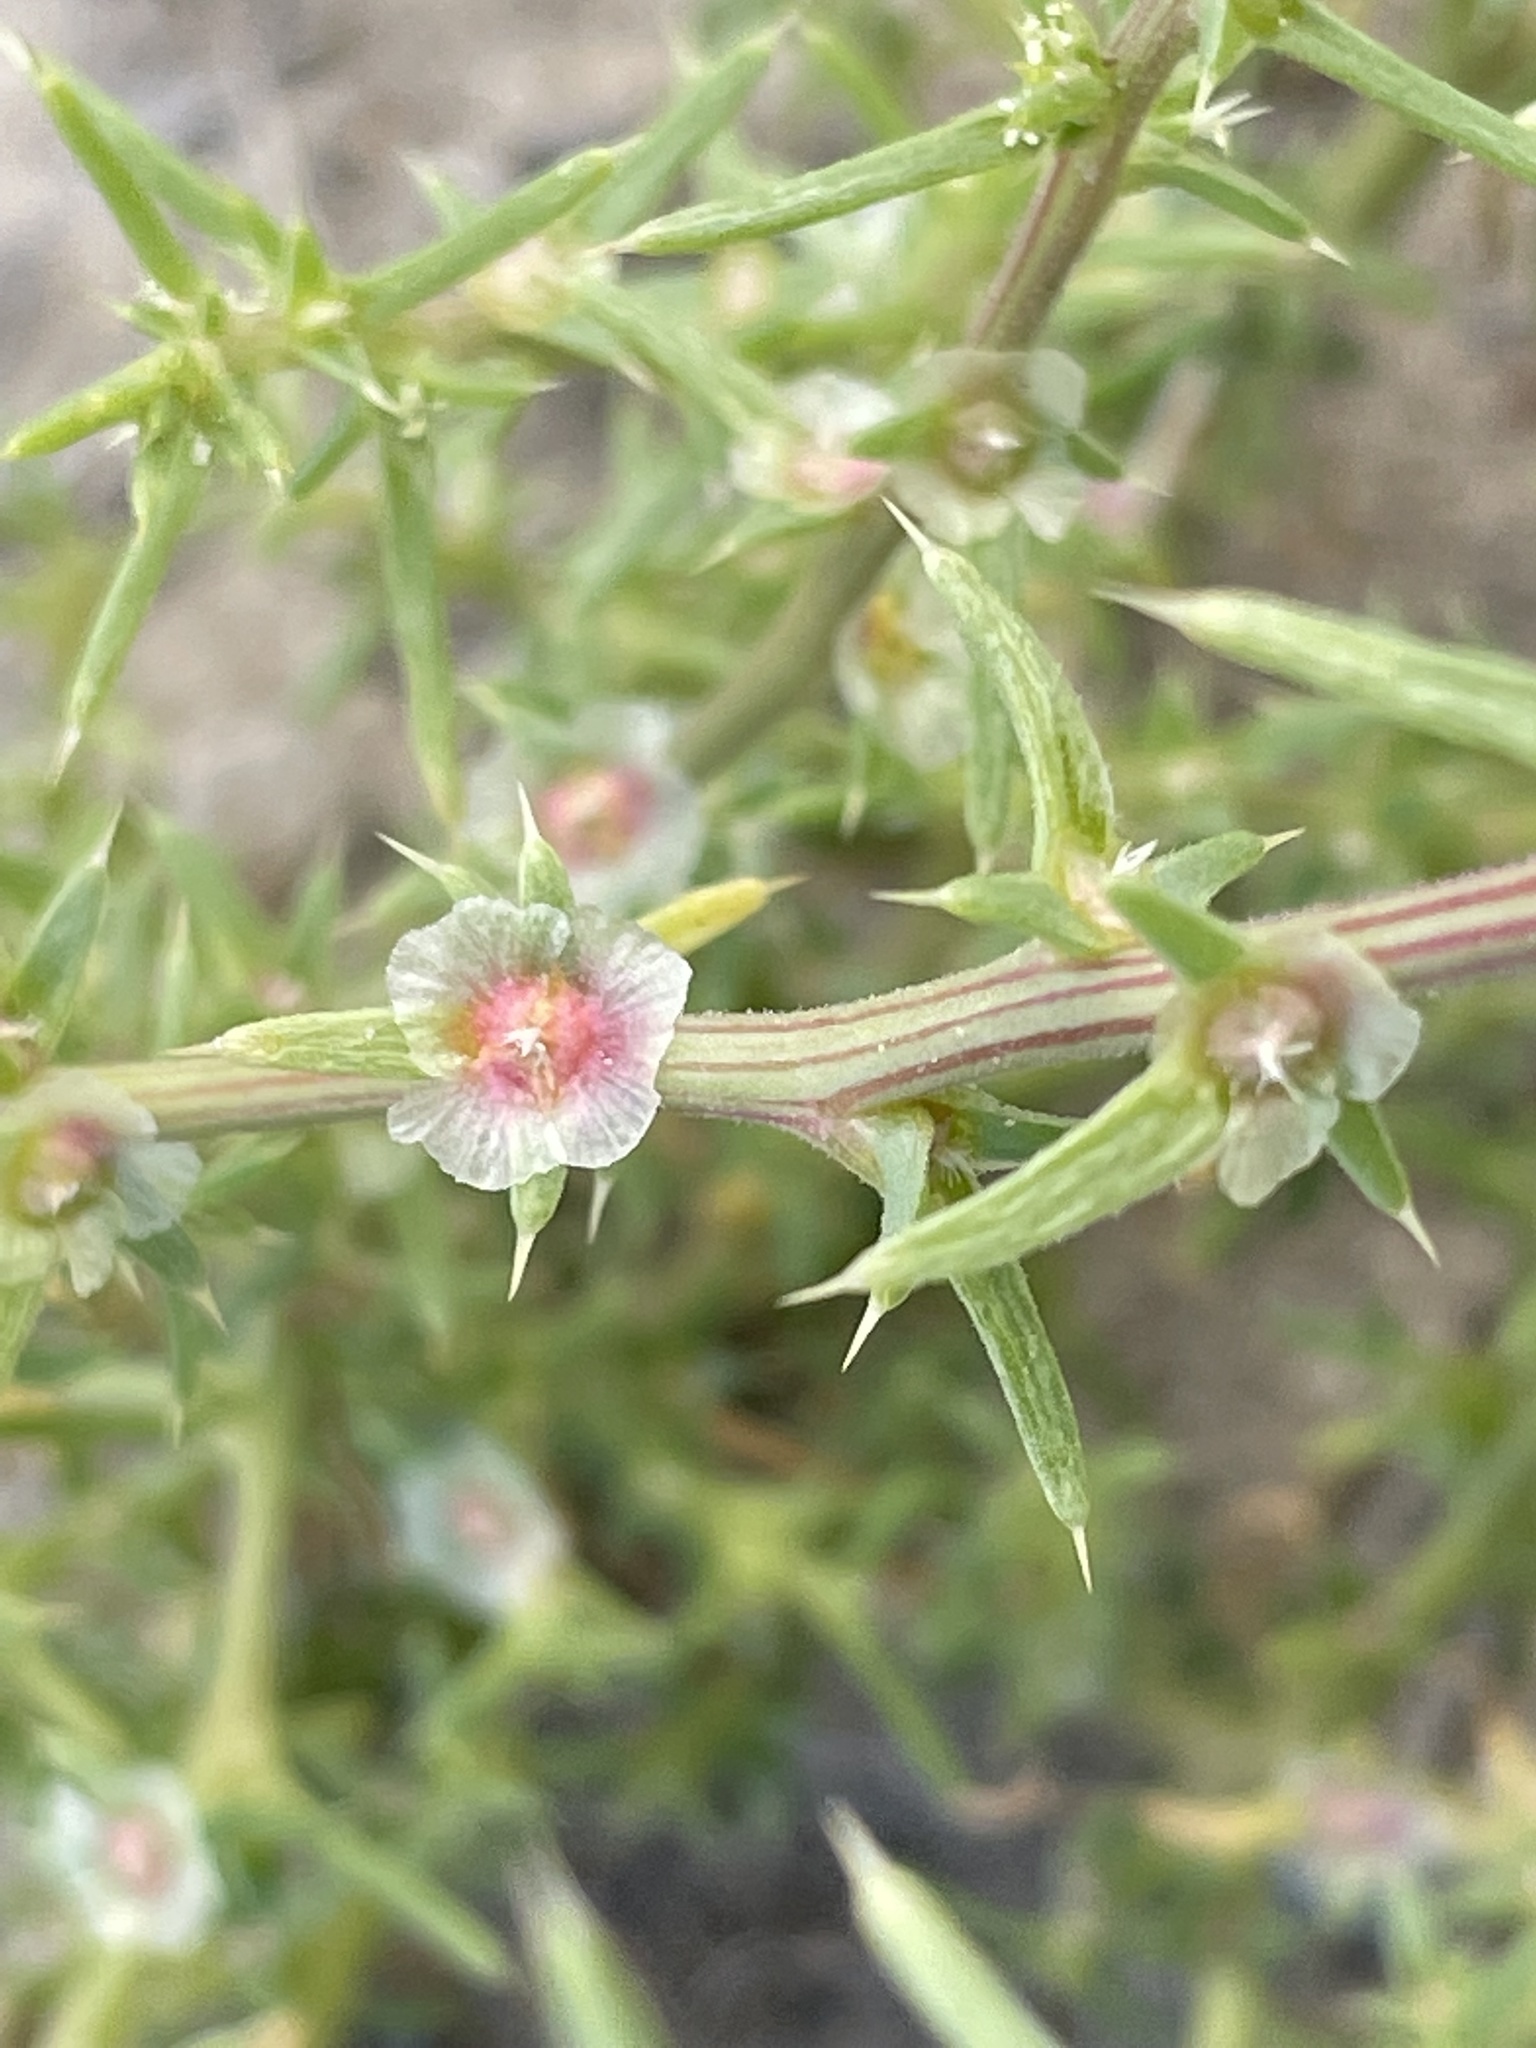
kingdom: Plantae
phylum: Tracheophyta
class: Magnoliopsida
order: Caryophyllales
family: Amaranthaceae
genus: Salsola
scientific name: Salsola tragus
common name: Prickly russian thistle
